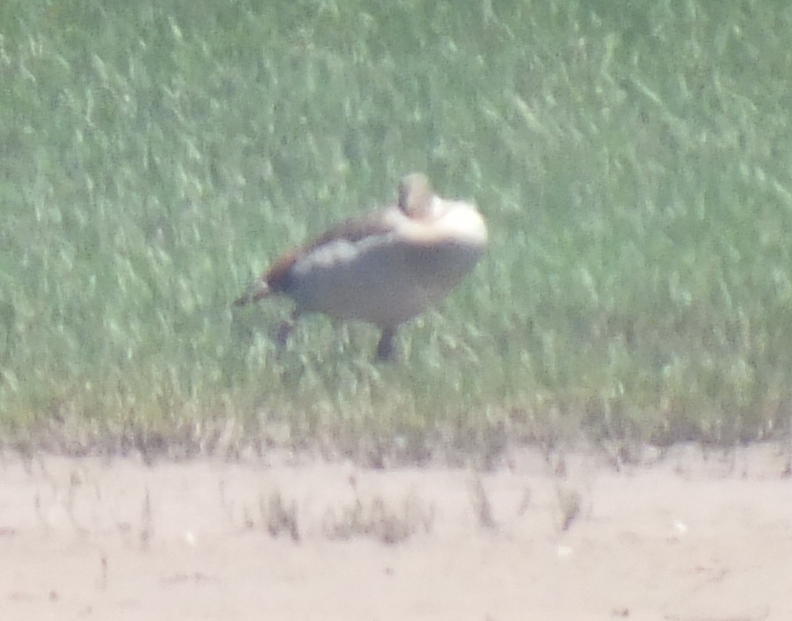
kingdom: Animalia
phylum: Chordata
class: Aves
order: Anseriformes
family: Anatidae
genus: Alopochen
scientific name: Alopochen aegyptiaca
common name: Egyptian goose
